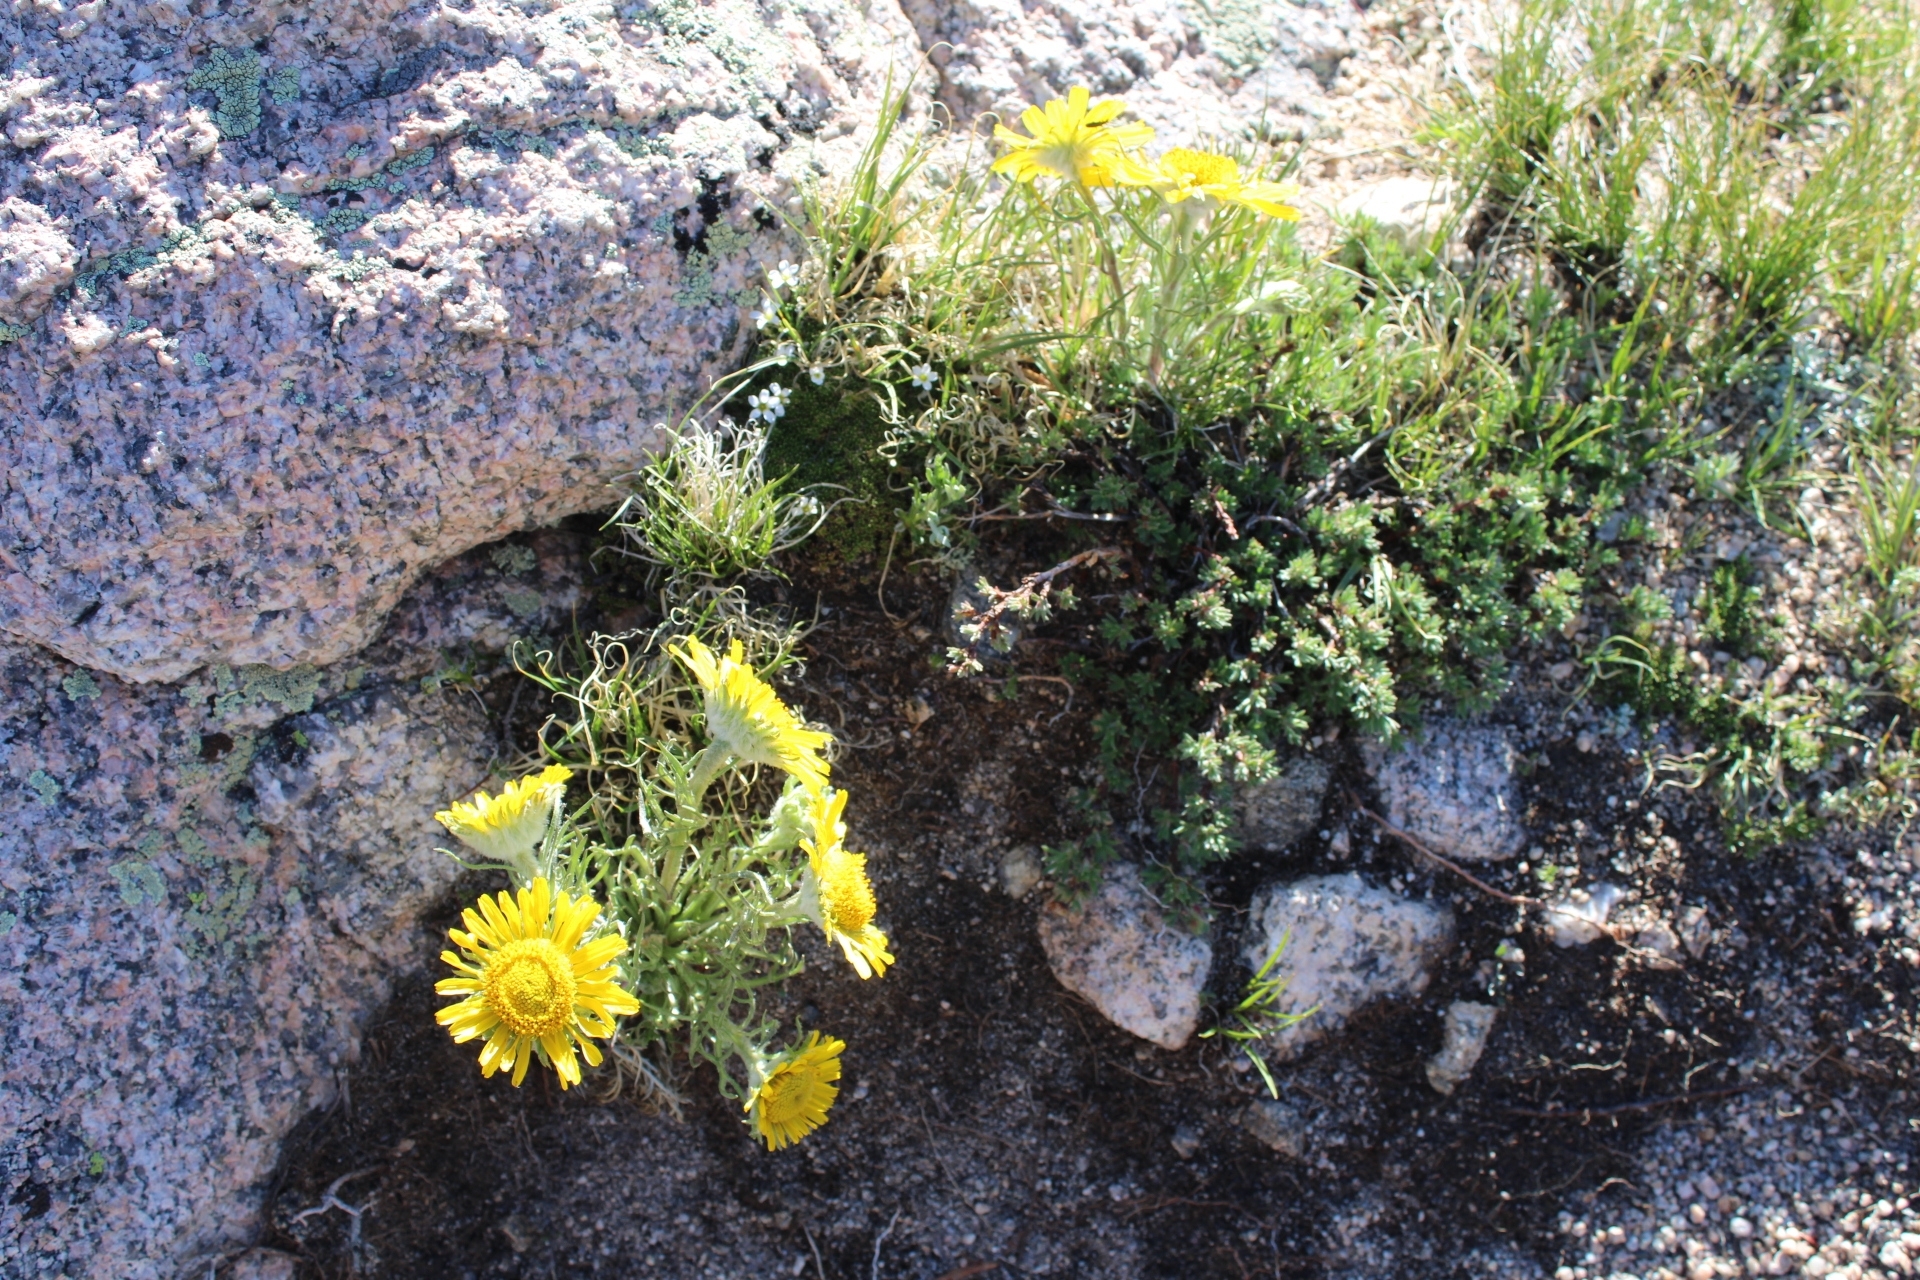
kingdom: Plantae
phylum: Tracheophyta
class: Magnoliopsida
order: Asterales
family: Asteraceae
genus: Hymenoxys
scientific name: Hymenoxys grandiflora
